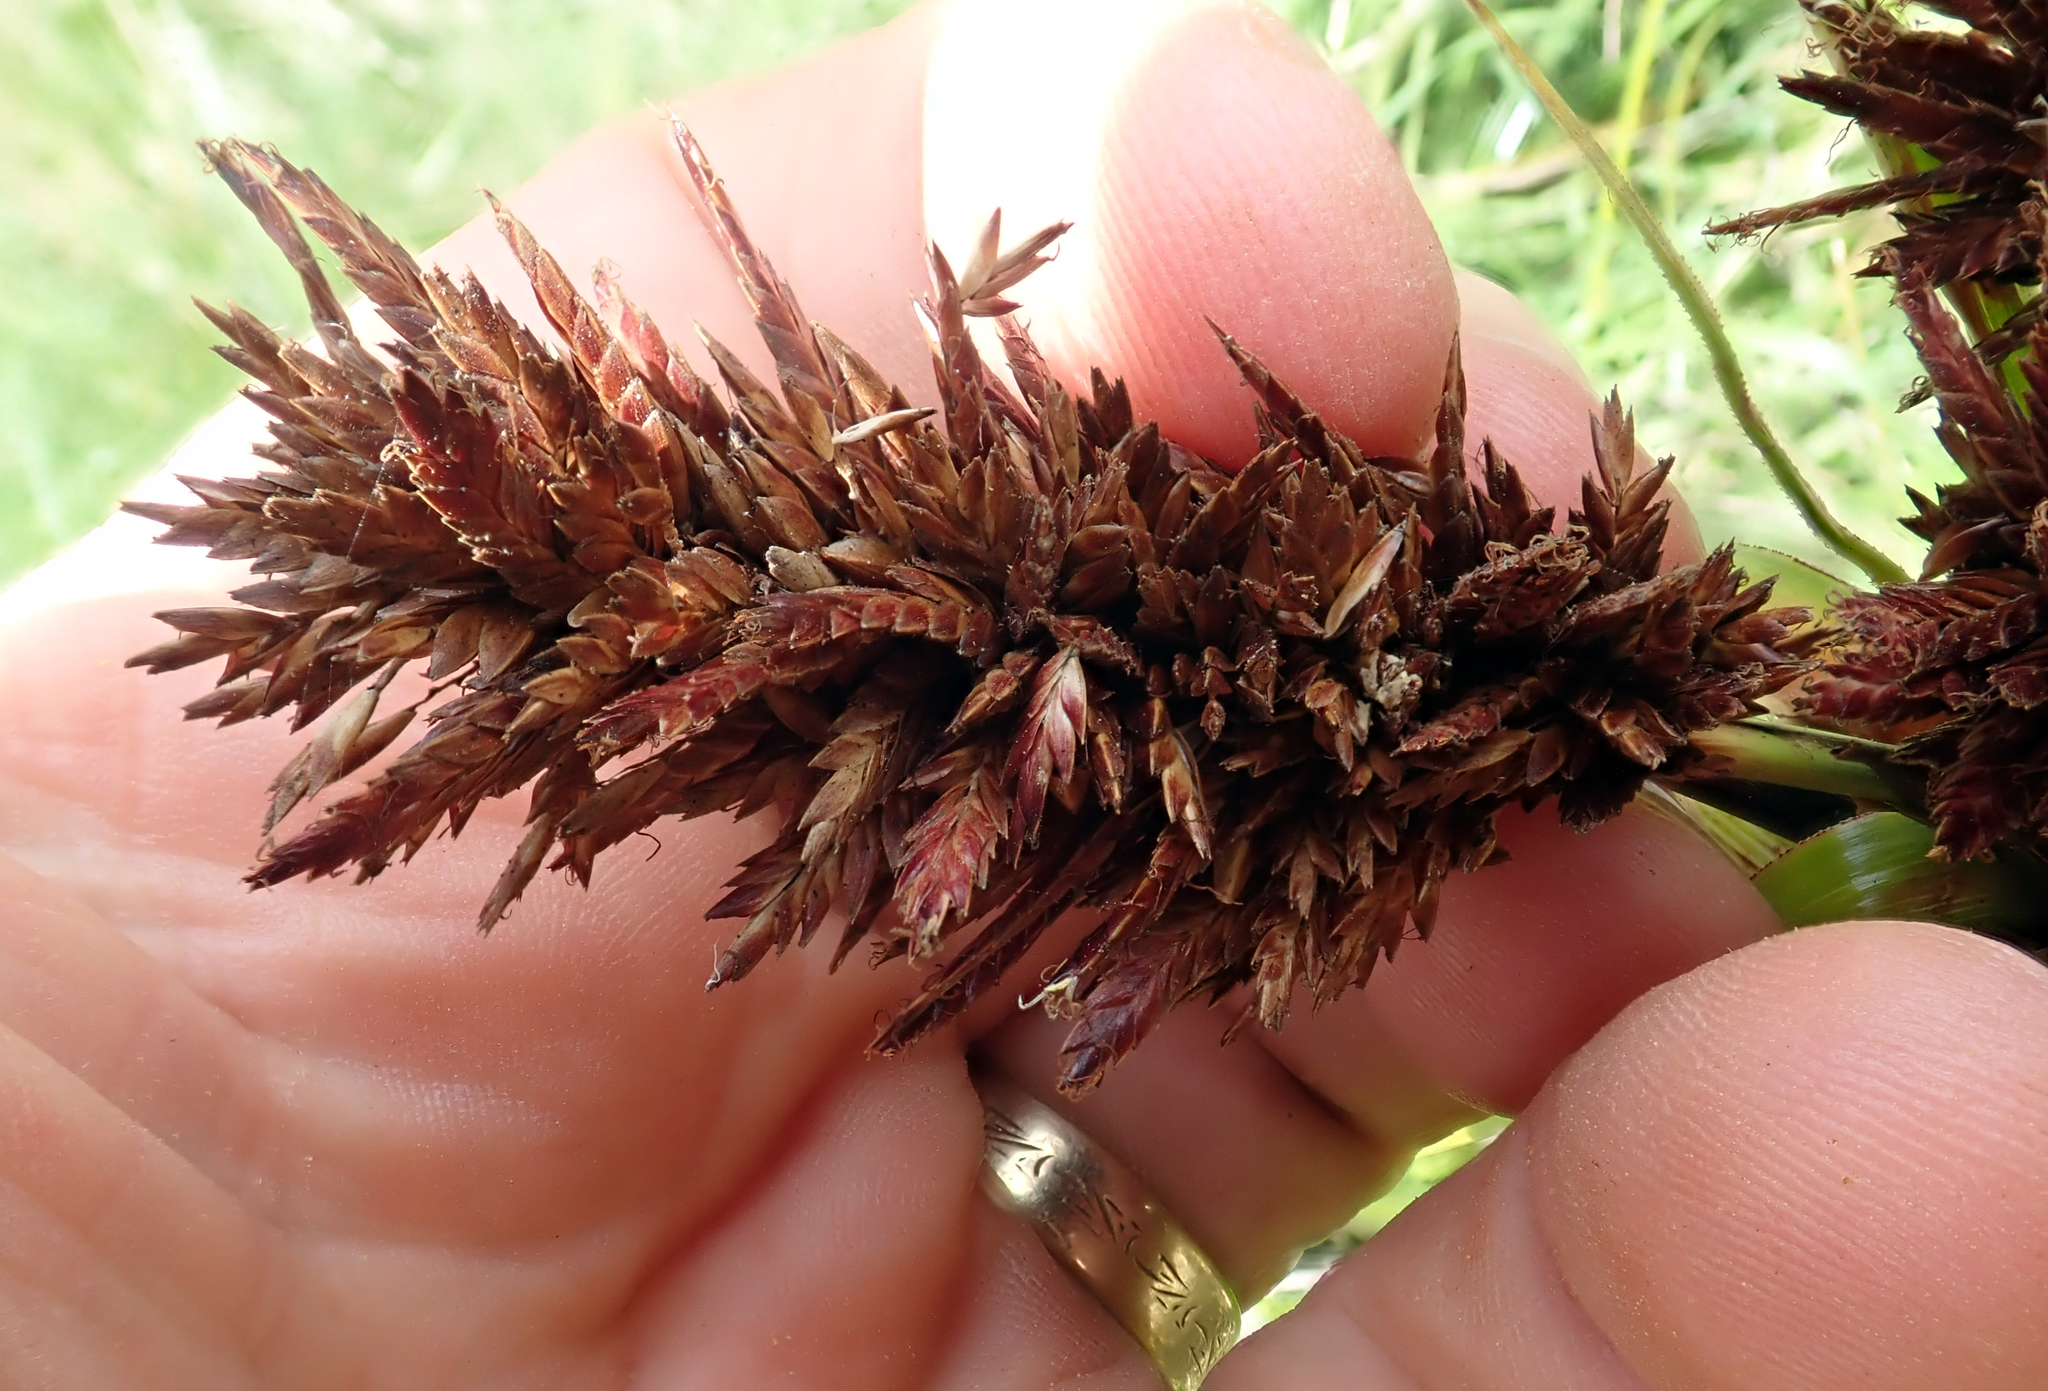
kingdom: Fungi
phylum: Basidiomycota
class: Microbotryomycetes
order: Microbotryales
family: Microbotryaceae
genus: Bauerago
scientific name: Bauerago gardneri
